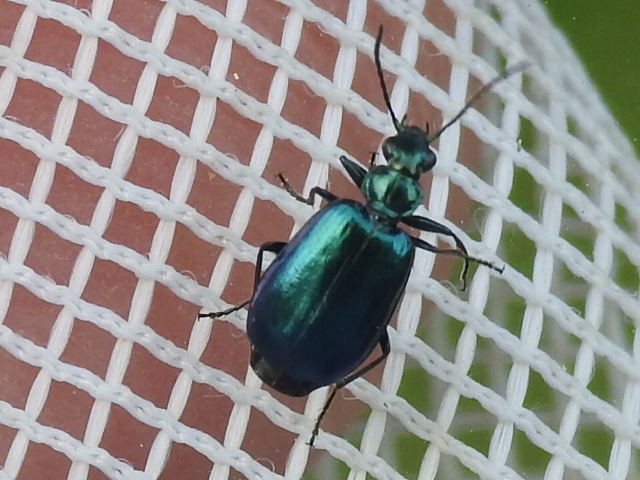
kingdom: Animalia
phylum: Arthropoda
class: Insecta
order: Coleoptera
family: Carabidae
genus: Lebia
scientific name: Lebia viridis
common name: Flower lebia beetle
